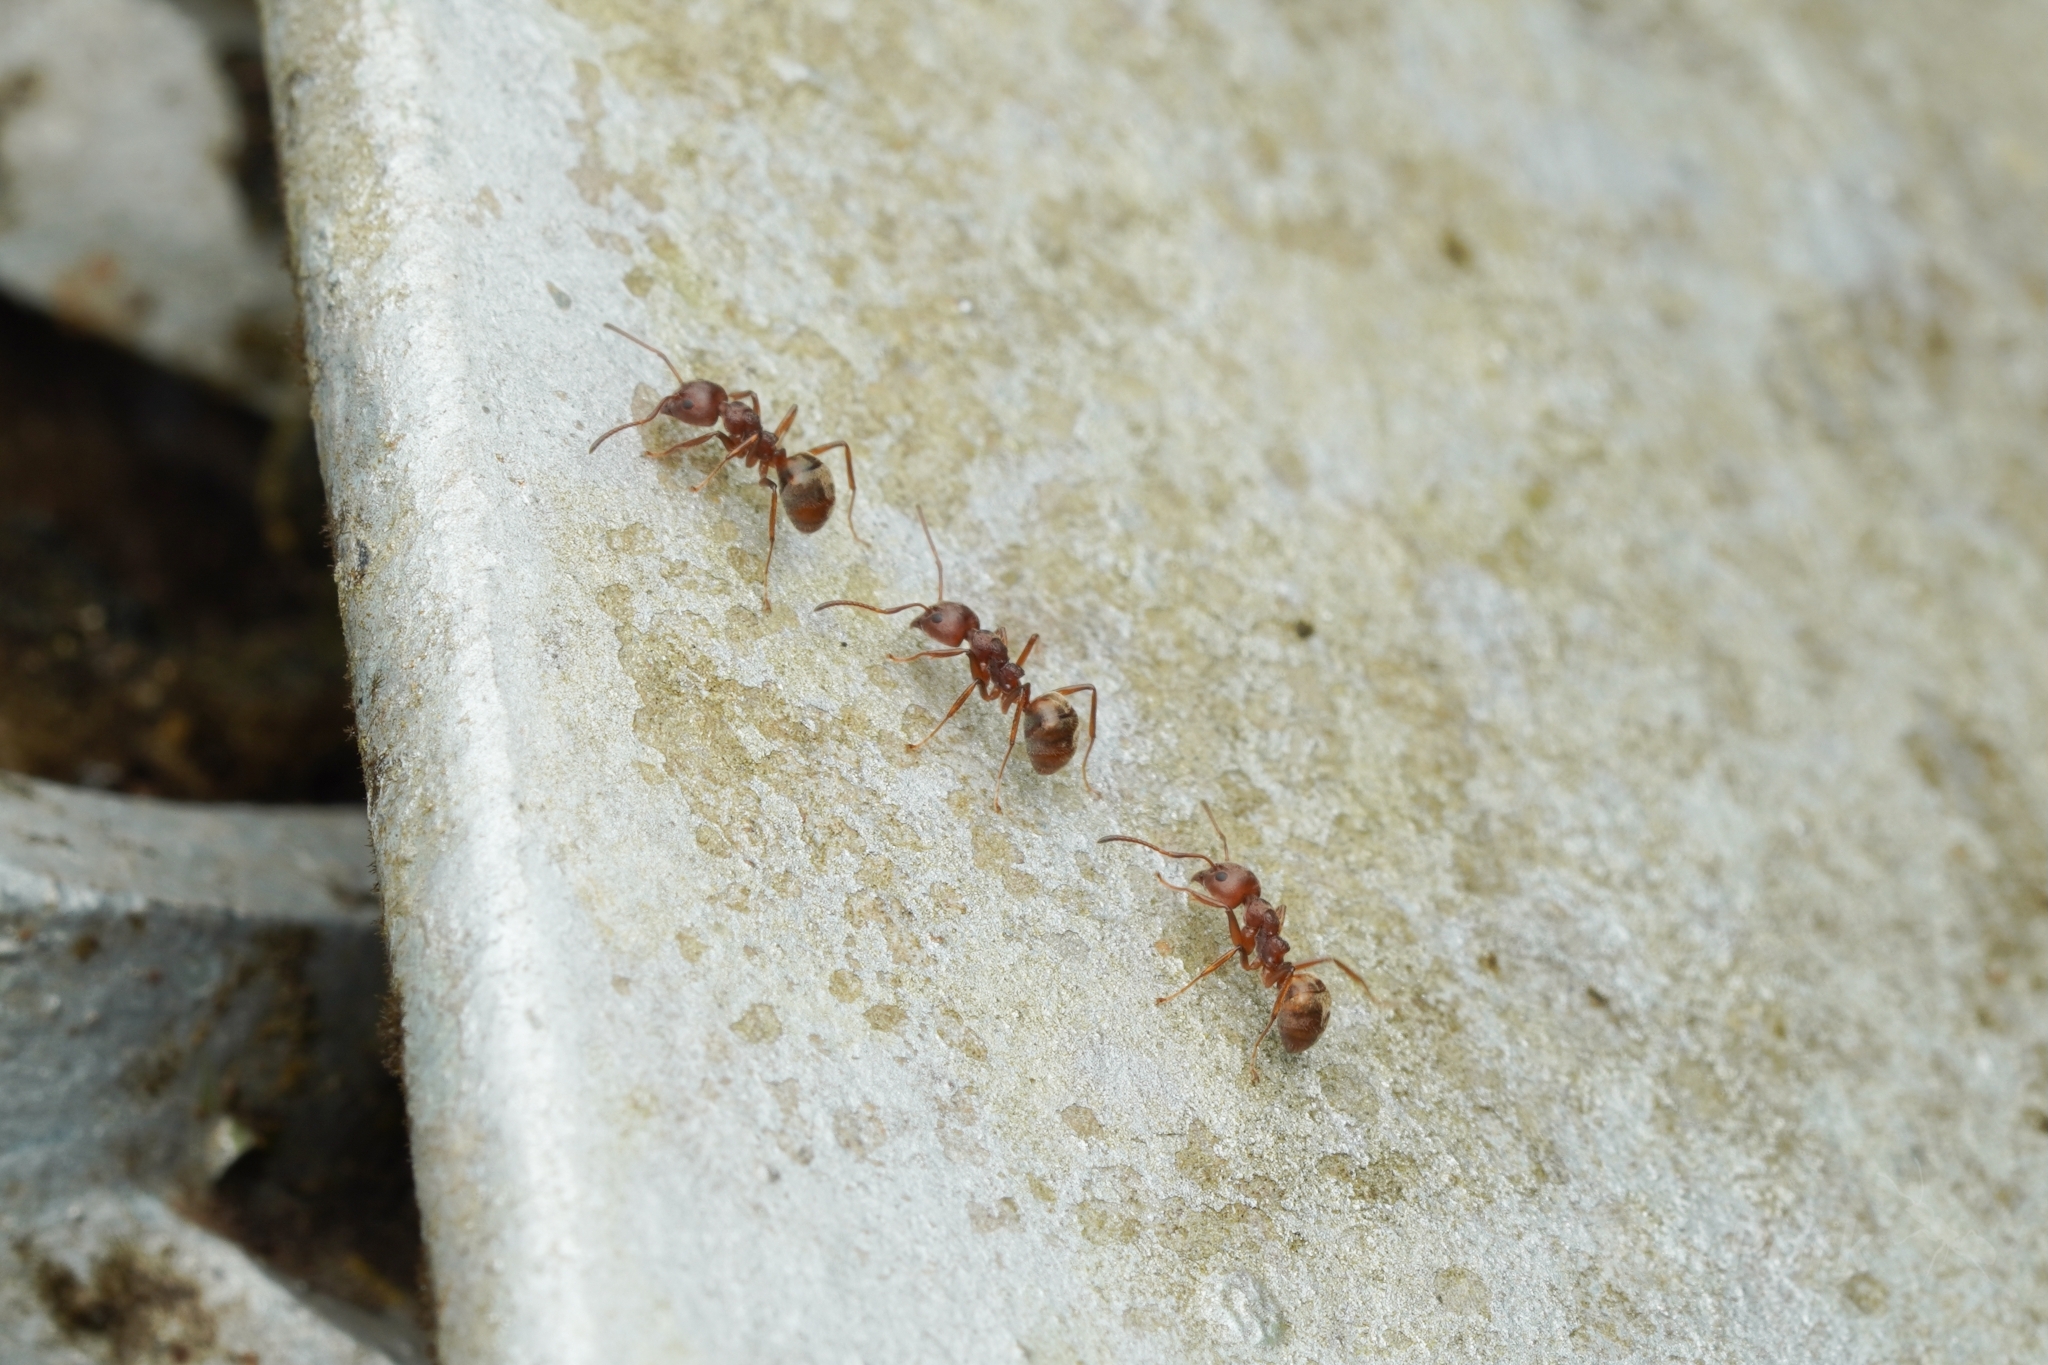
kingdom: Animalia
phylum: Arthropoda
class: Insecta
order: Hymenoptera
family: Formicidae
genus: Dolichoderus
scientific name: Dolichoderus thoracicus
